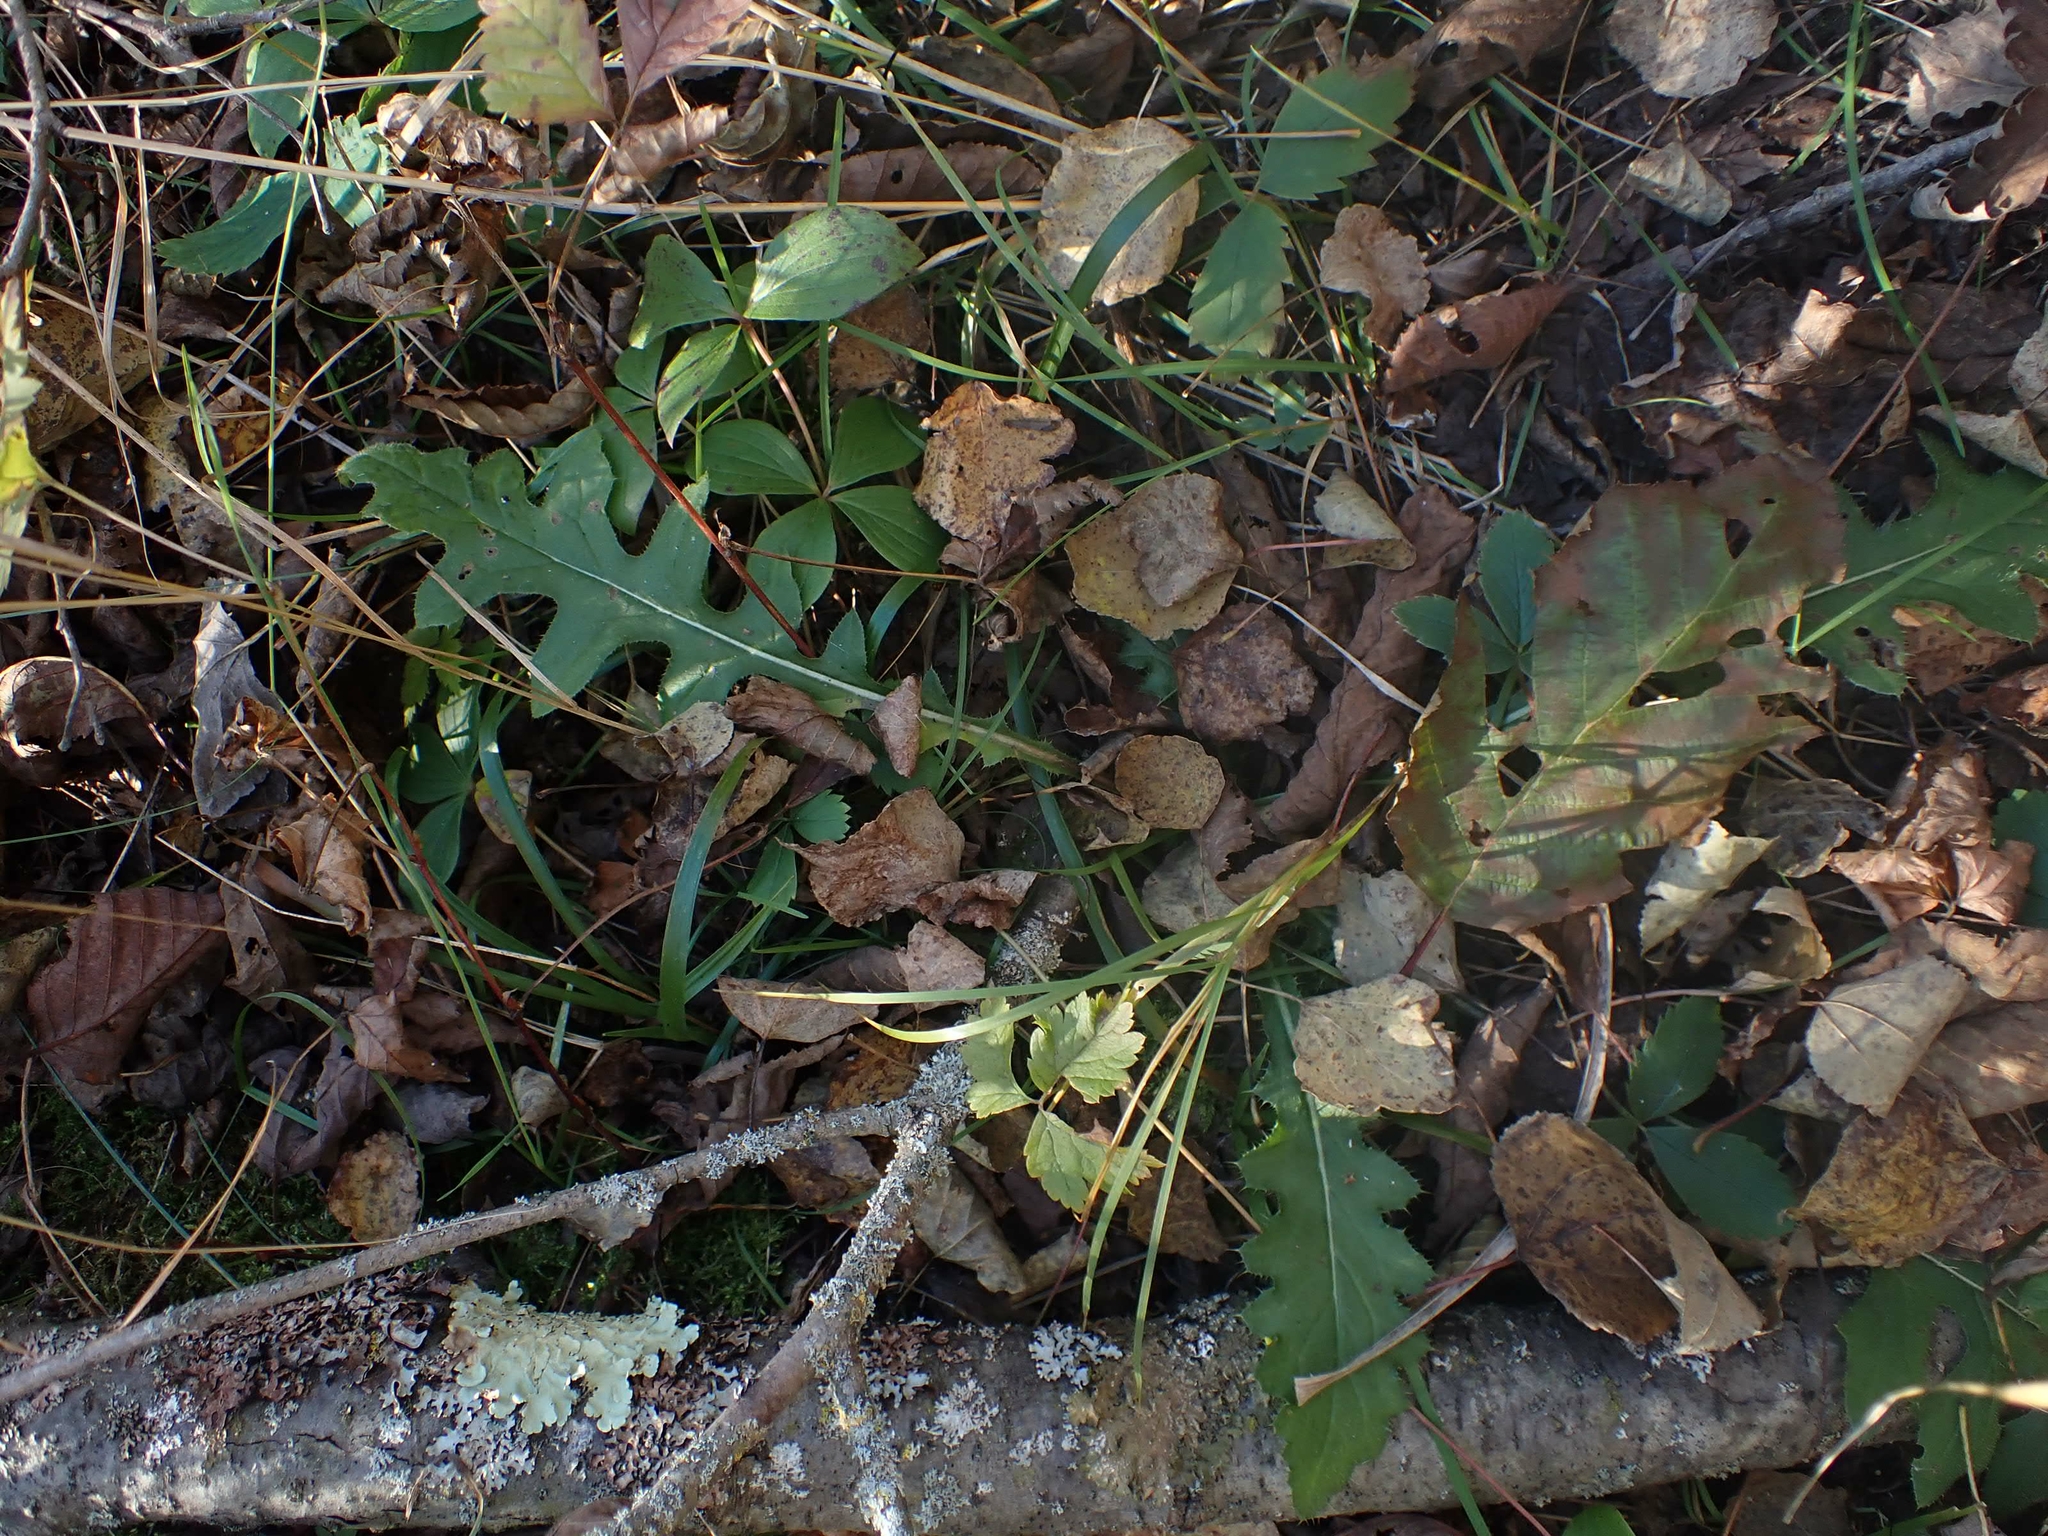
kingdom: Plantae
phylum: Tracheophyta
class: Magnoliopsida
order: Asterales
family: Asteraceae
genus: Cirsium
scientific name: Cirsium muticum
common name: Dunce-nettle
